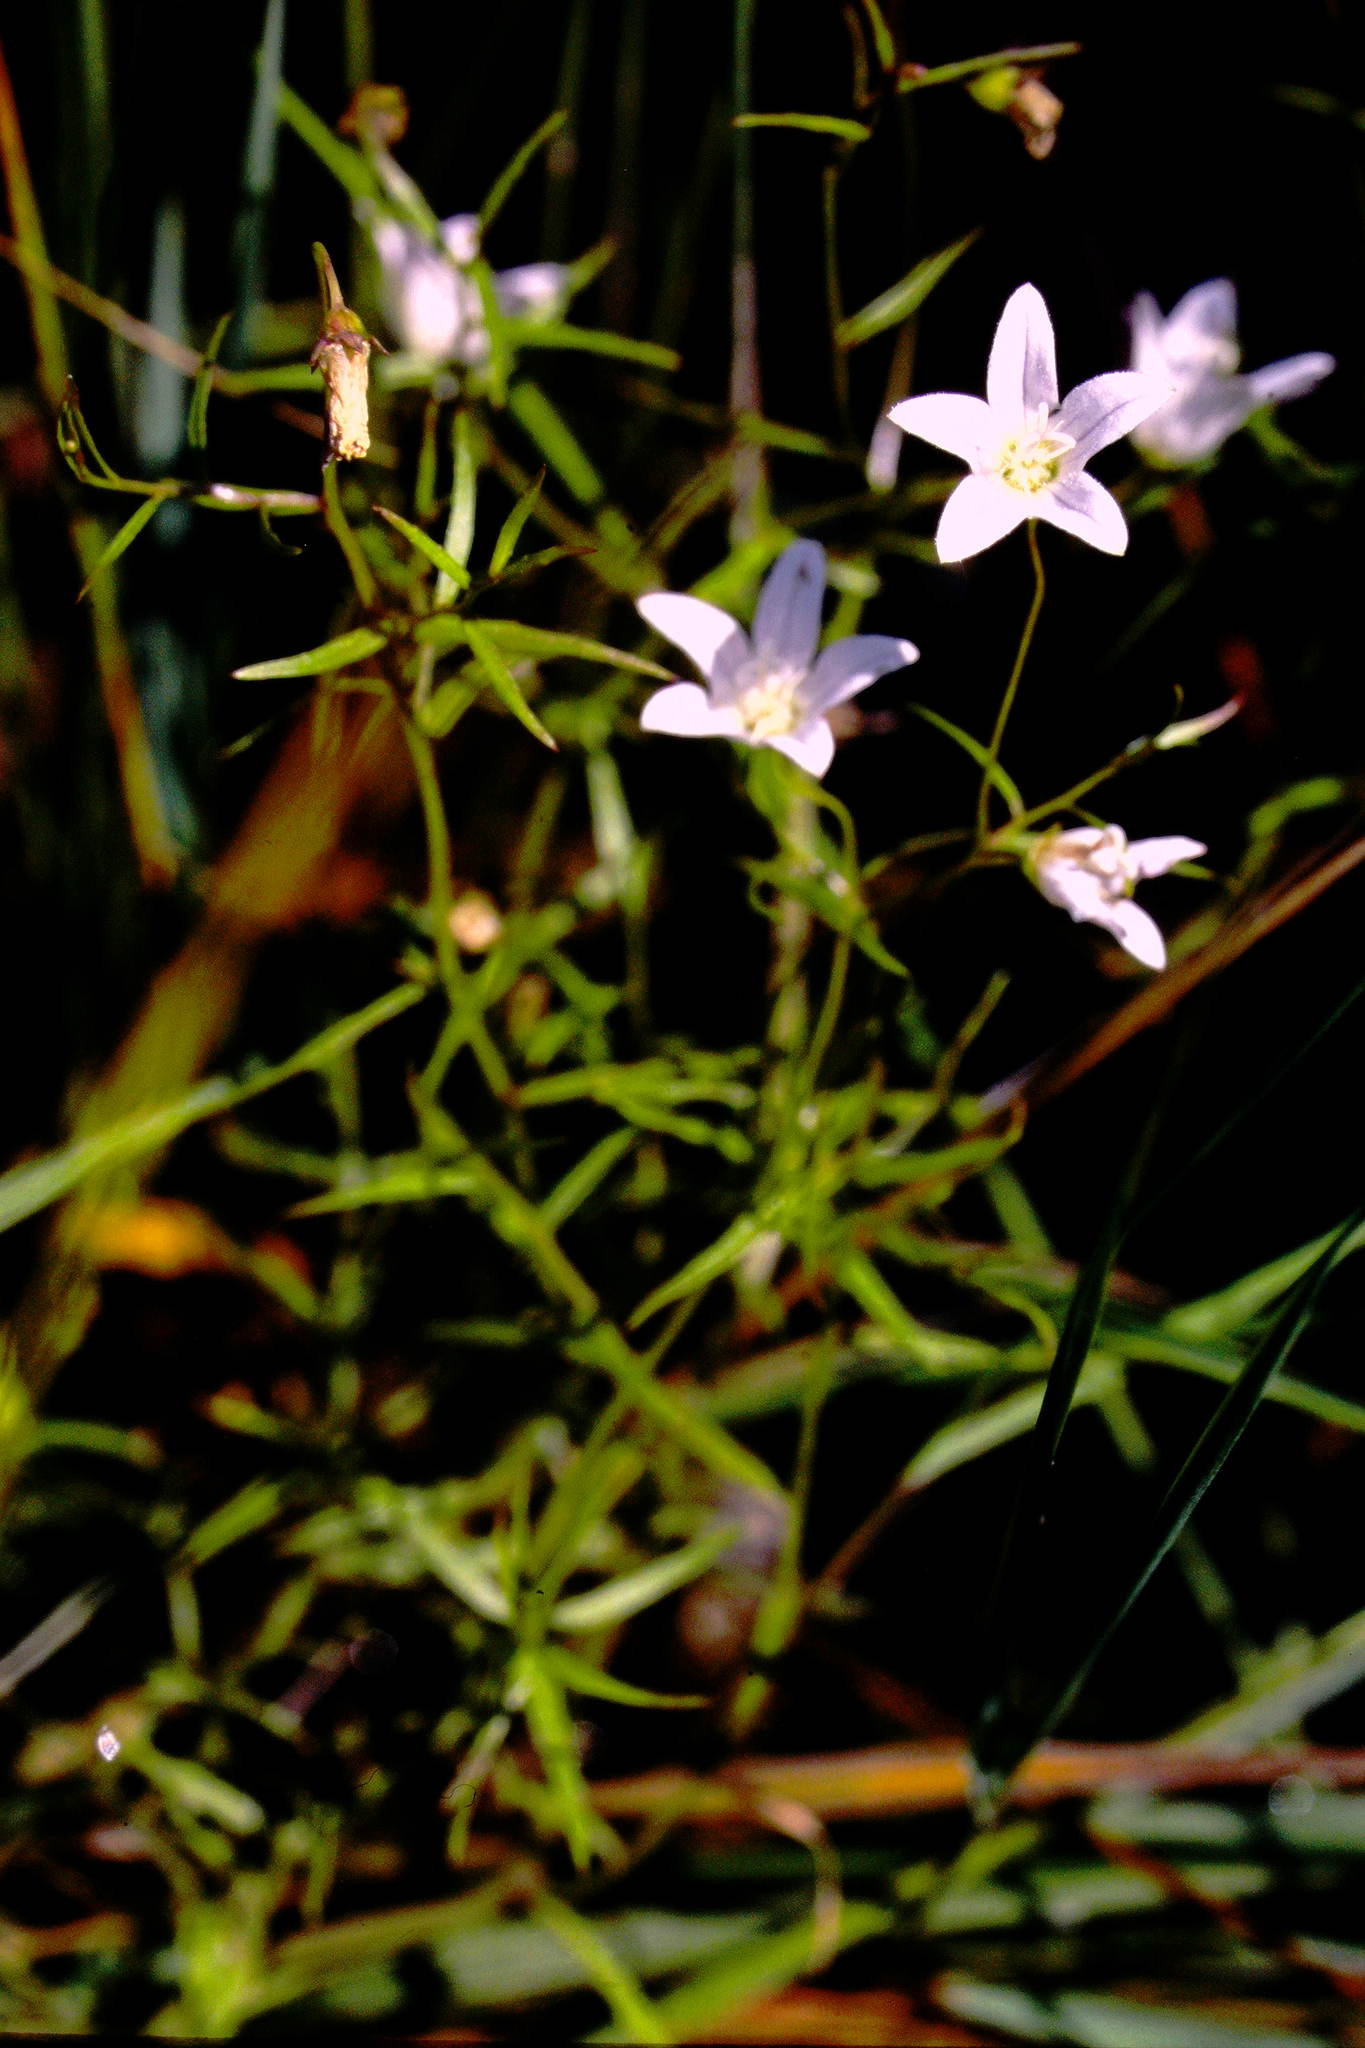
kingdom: Plantae
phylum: Tracheophyta
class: Magnoliopsida
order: Asterales
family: Campanulaceae
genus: Palustricodon
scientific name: Palustricodon aparinoides
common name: Bedstraw bellflower
